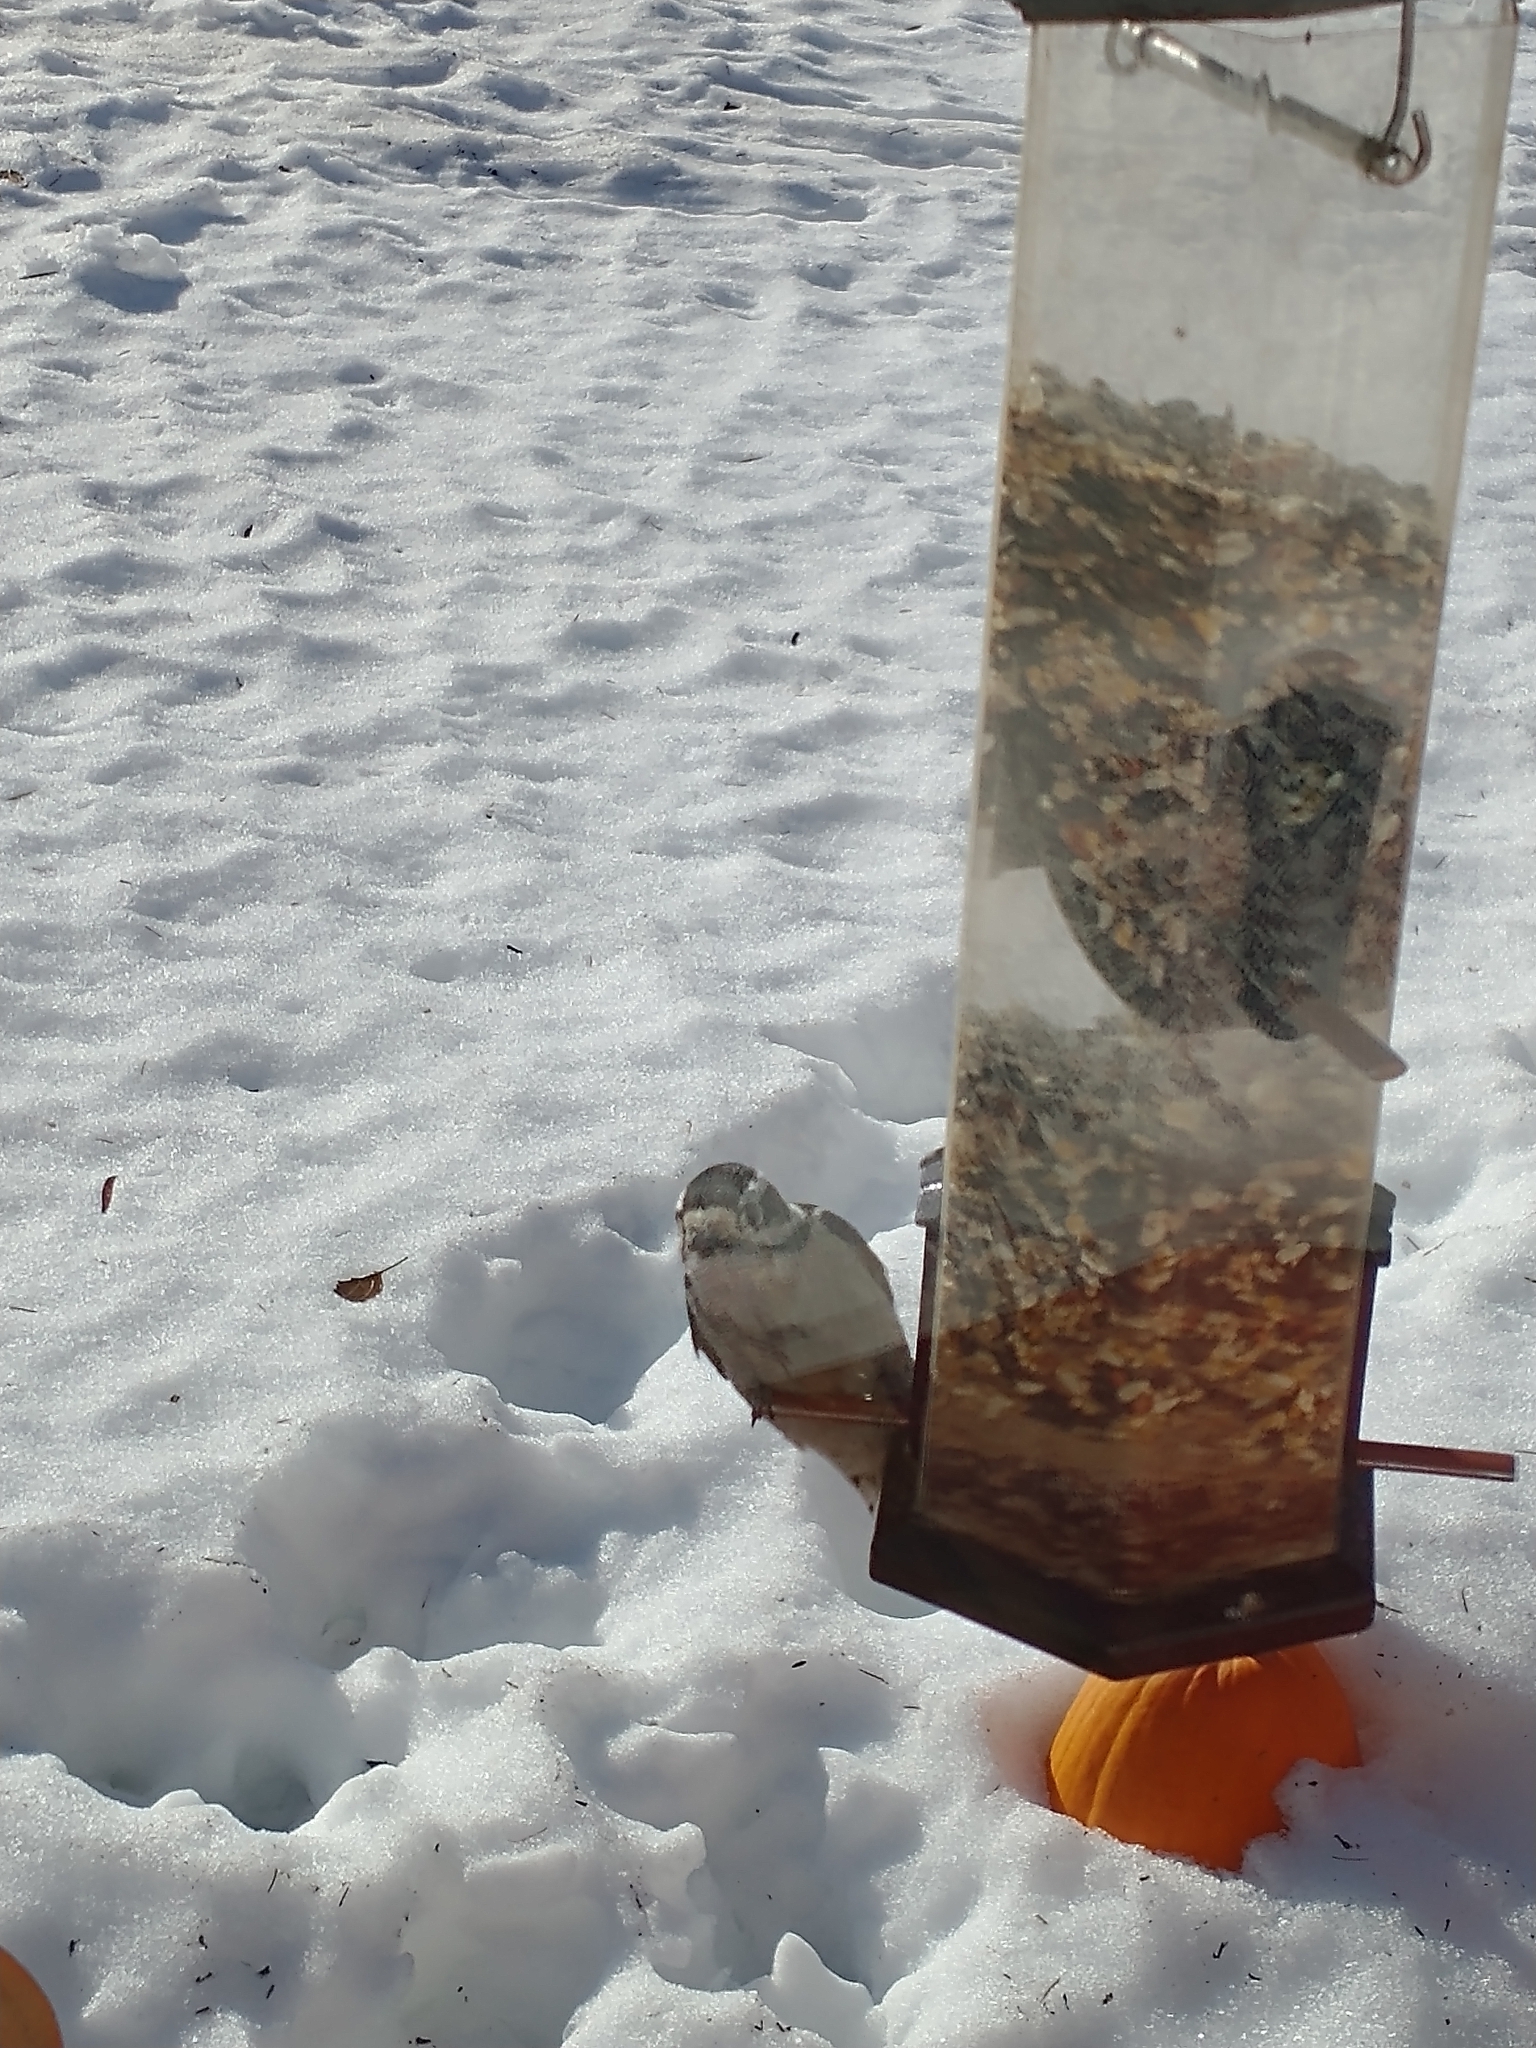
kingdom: Animalia
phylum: Chordata
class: Aves
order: Piciformes
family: Picidae
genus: Dryobates
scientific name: Dryobates pubescens
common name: Downy woodpecker
